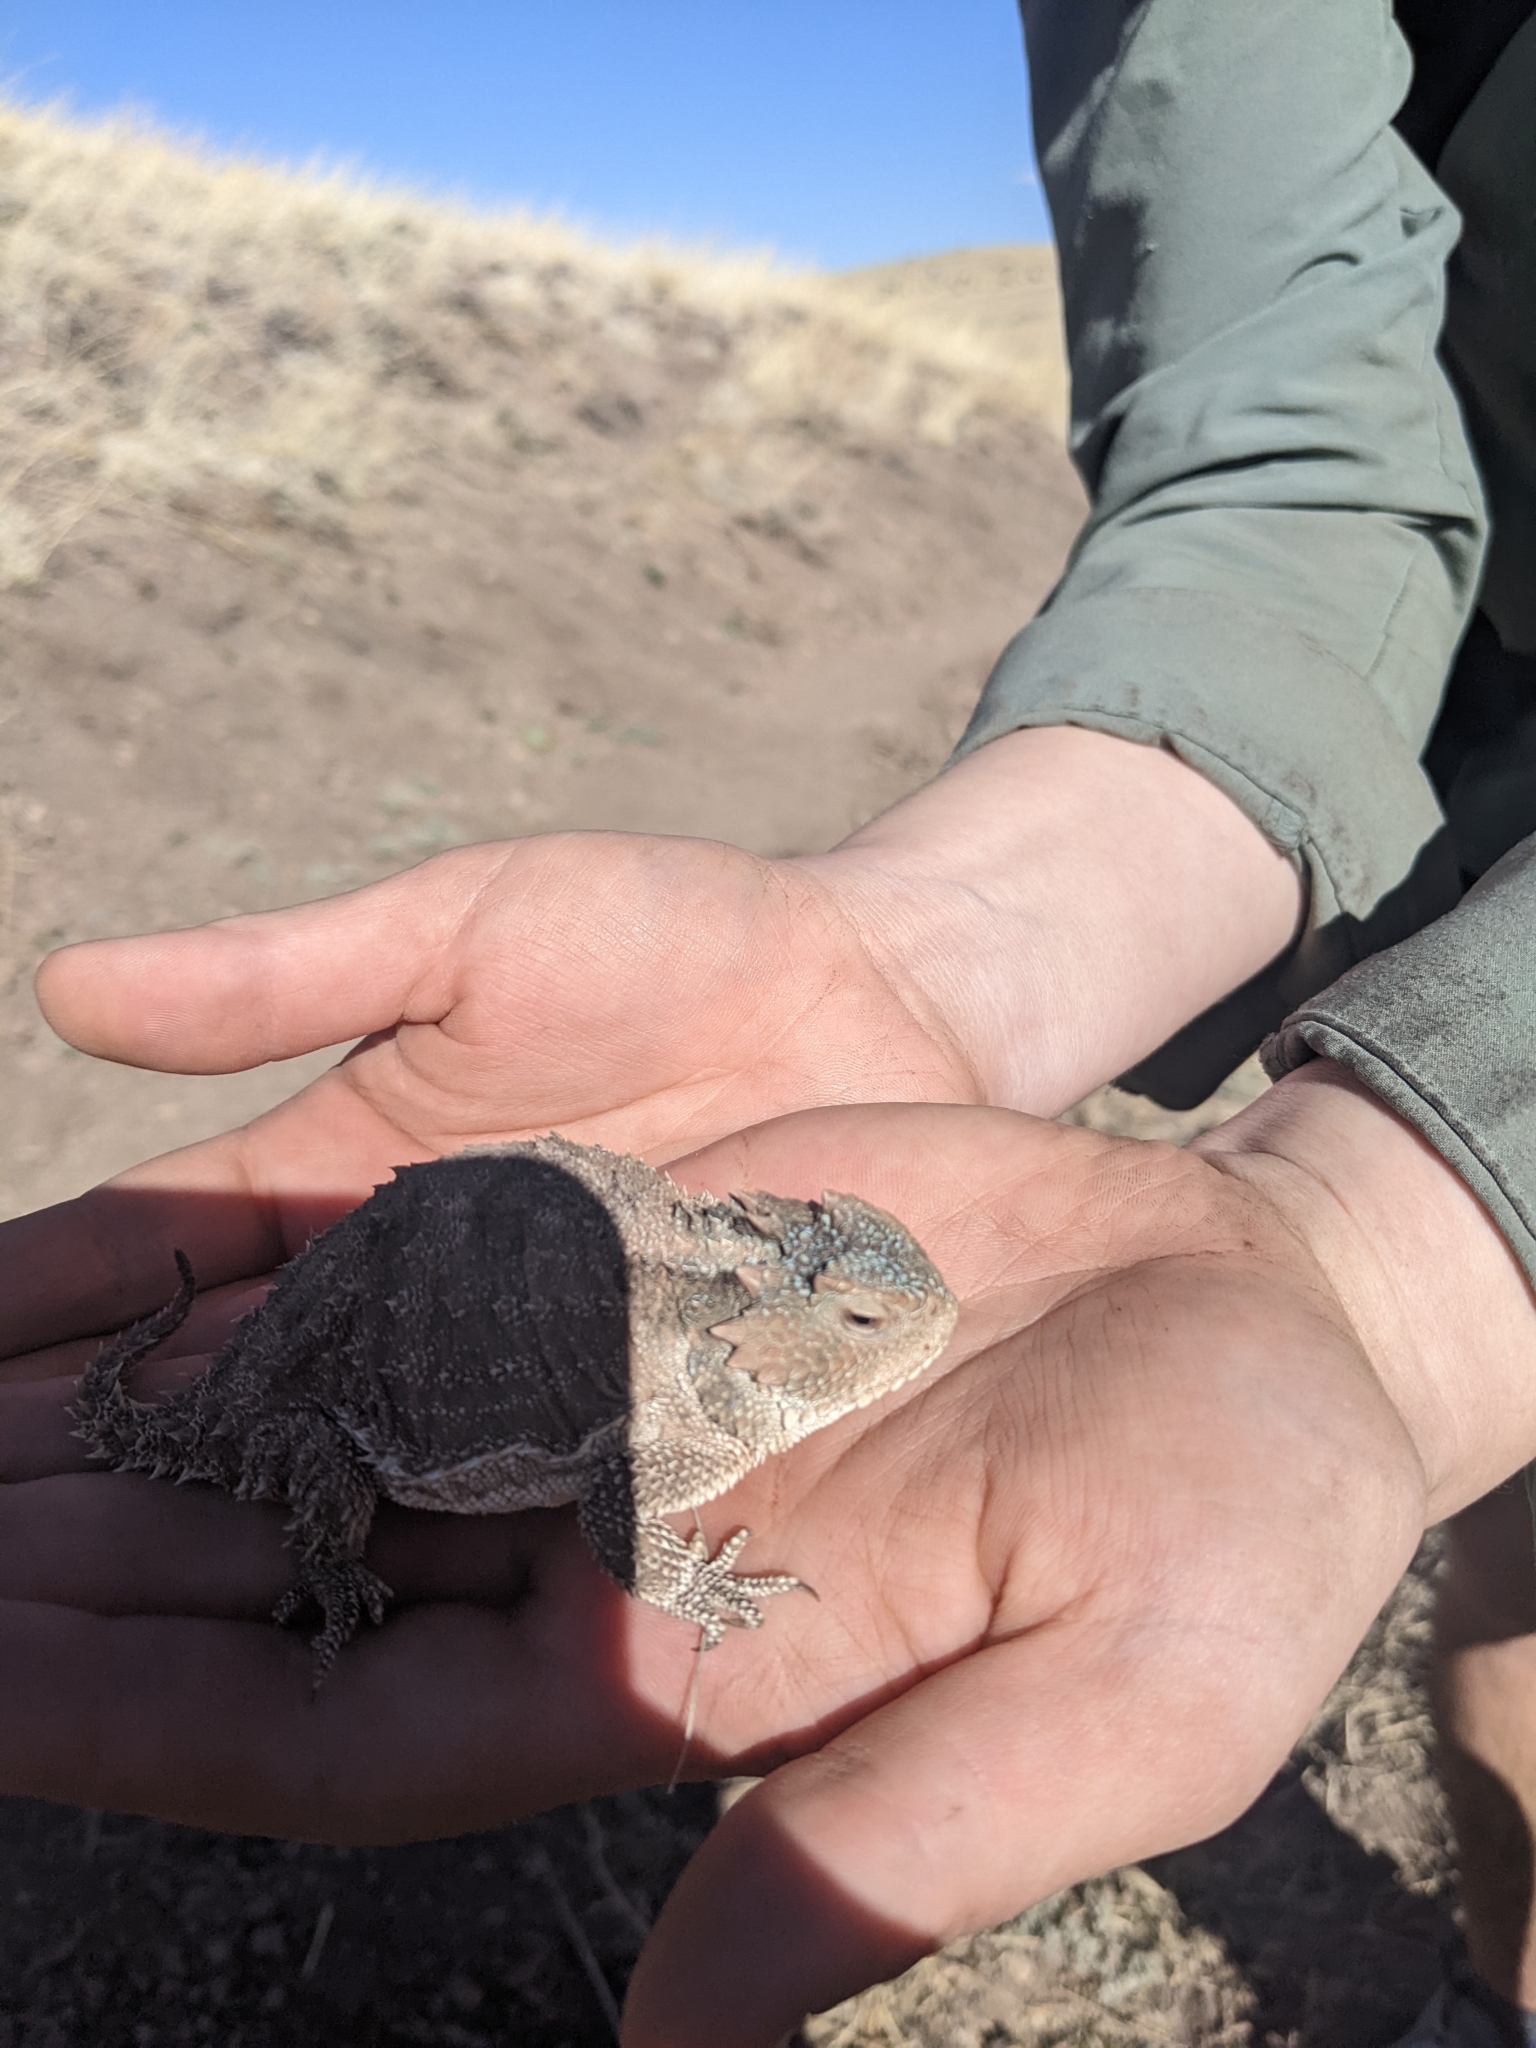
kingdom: Animalia
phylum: Chordata
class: Squamata
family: Phrynosomatidae
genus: Phrynosoma
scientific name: Phrynosoma hernandesi
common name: Greater short-horned lizard
